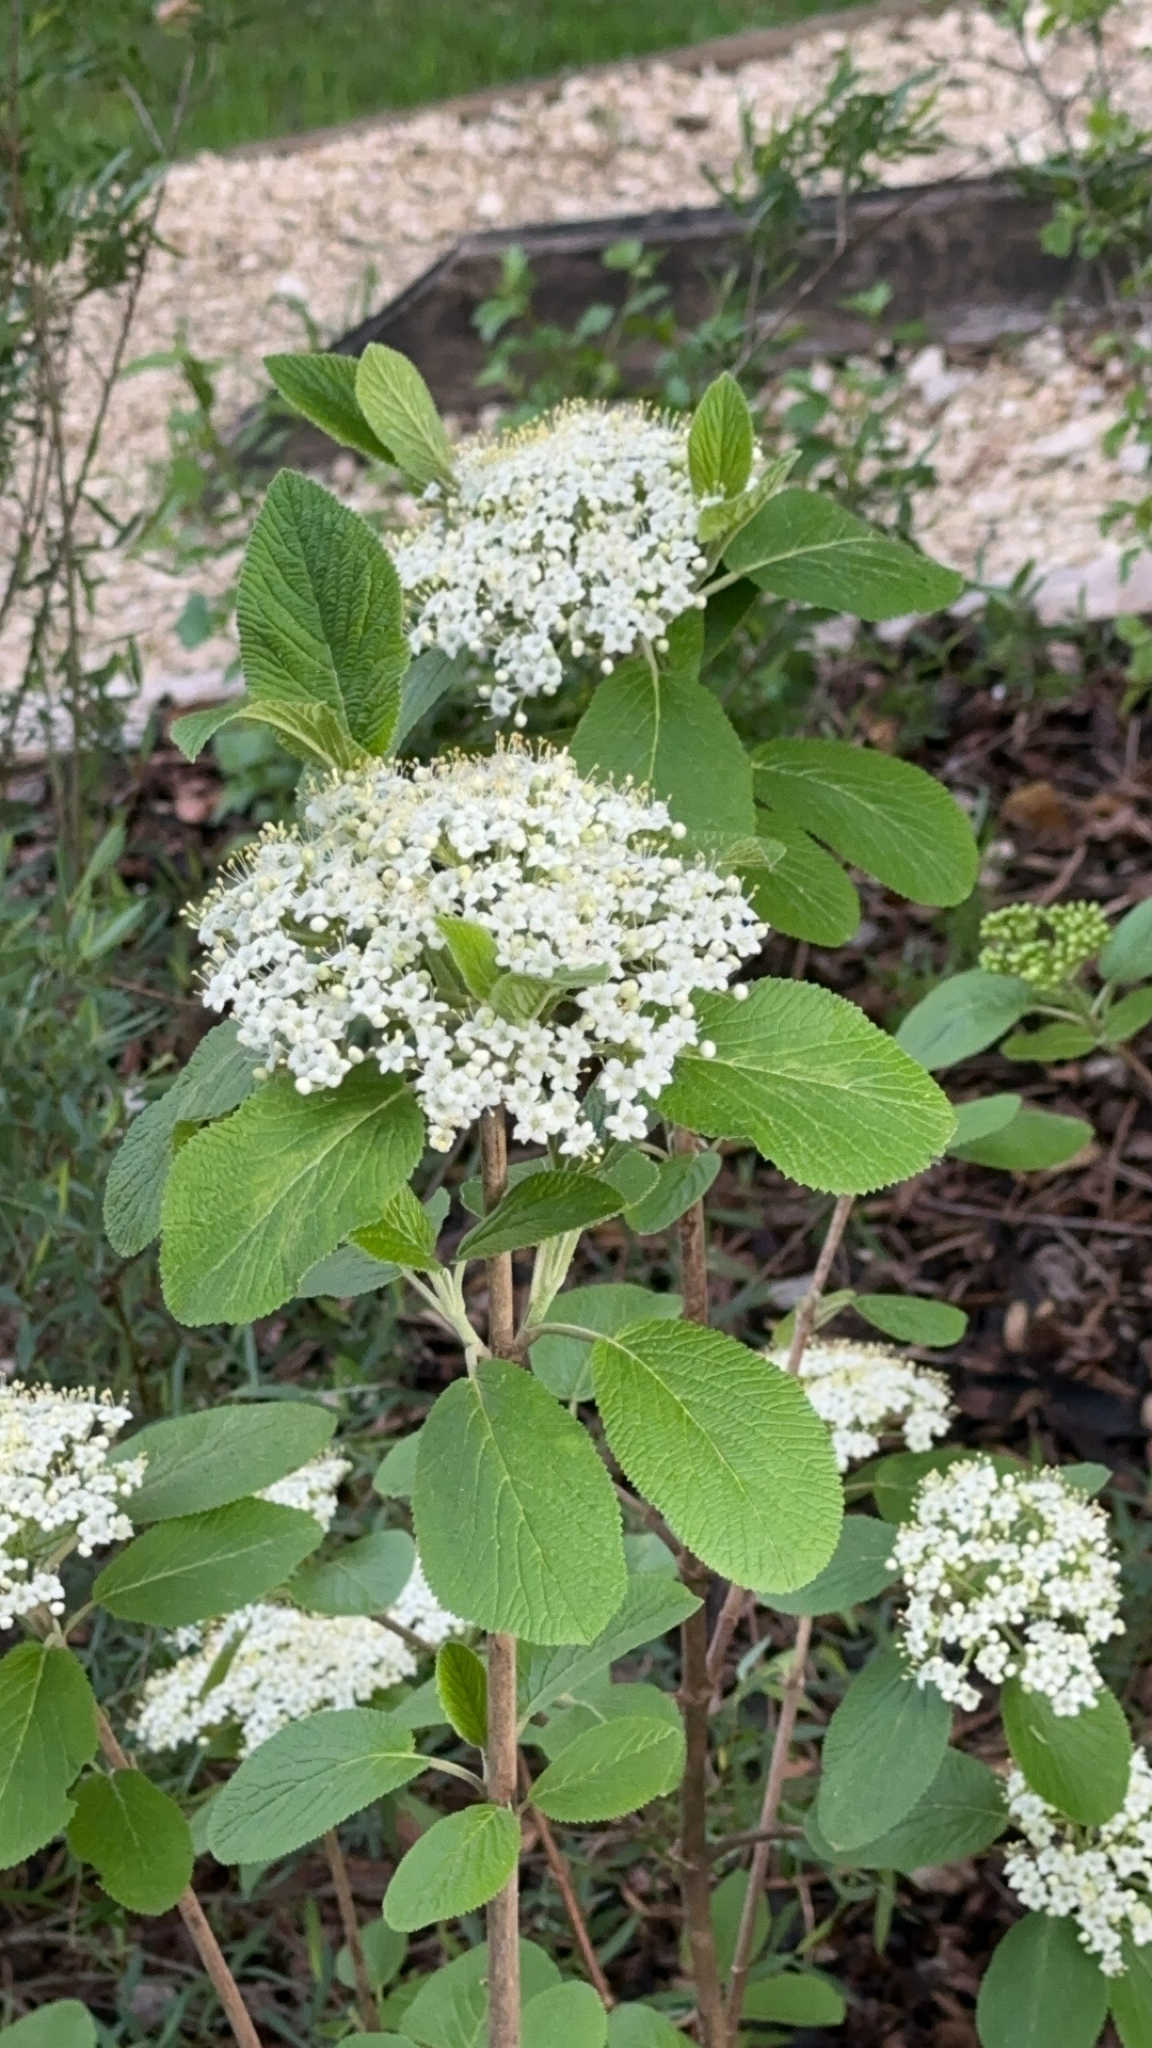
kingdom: Plantae
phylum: Tracheophyta
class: Magnoliopsida
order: Dipsacales
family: Viburnaceae
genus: Viburnum
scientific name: Viburnum lantana
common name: Wayfaring tree
